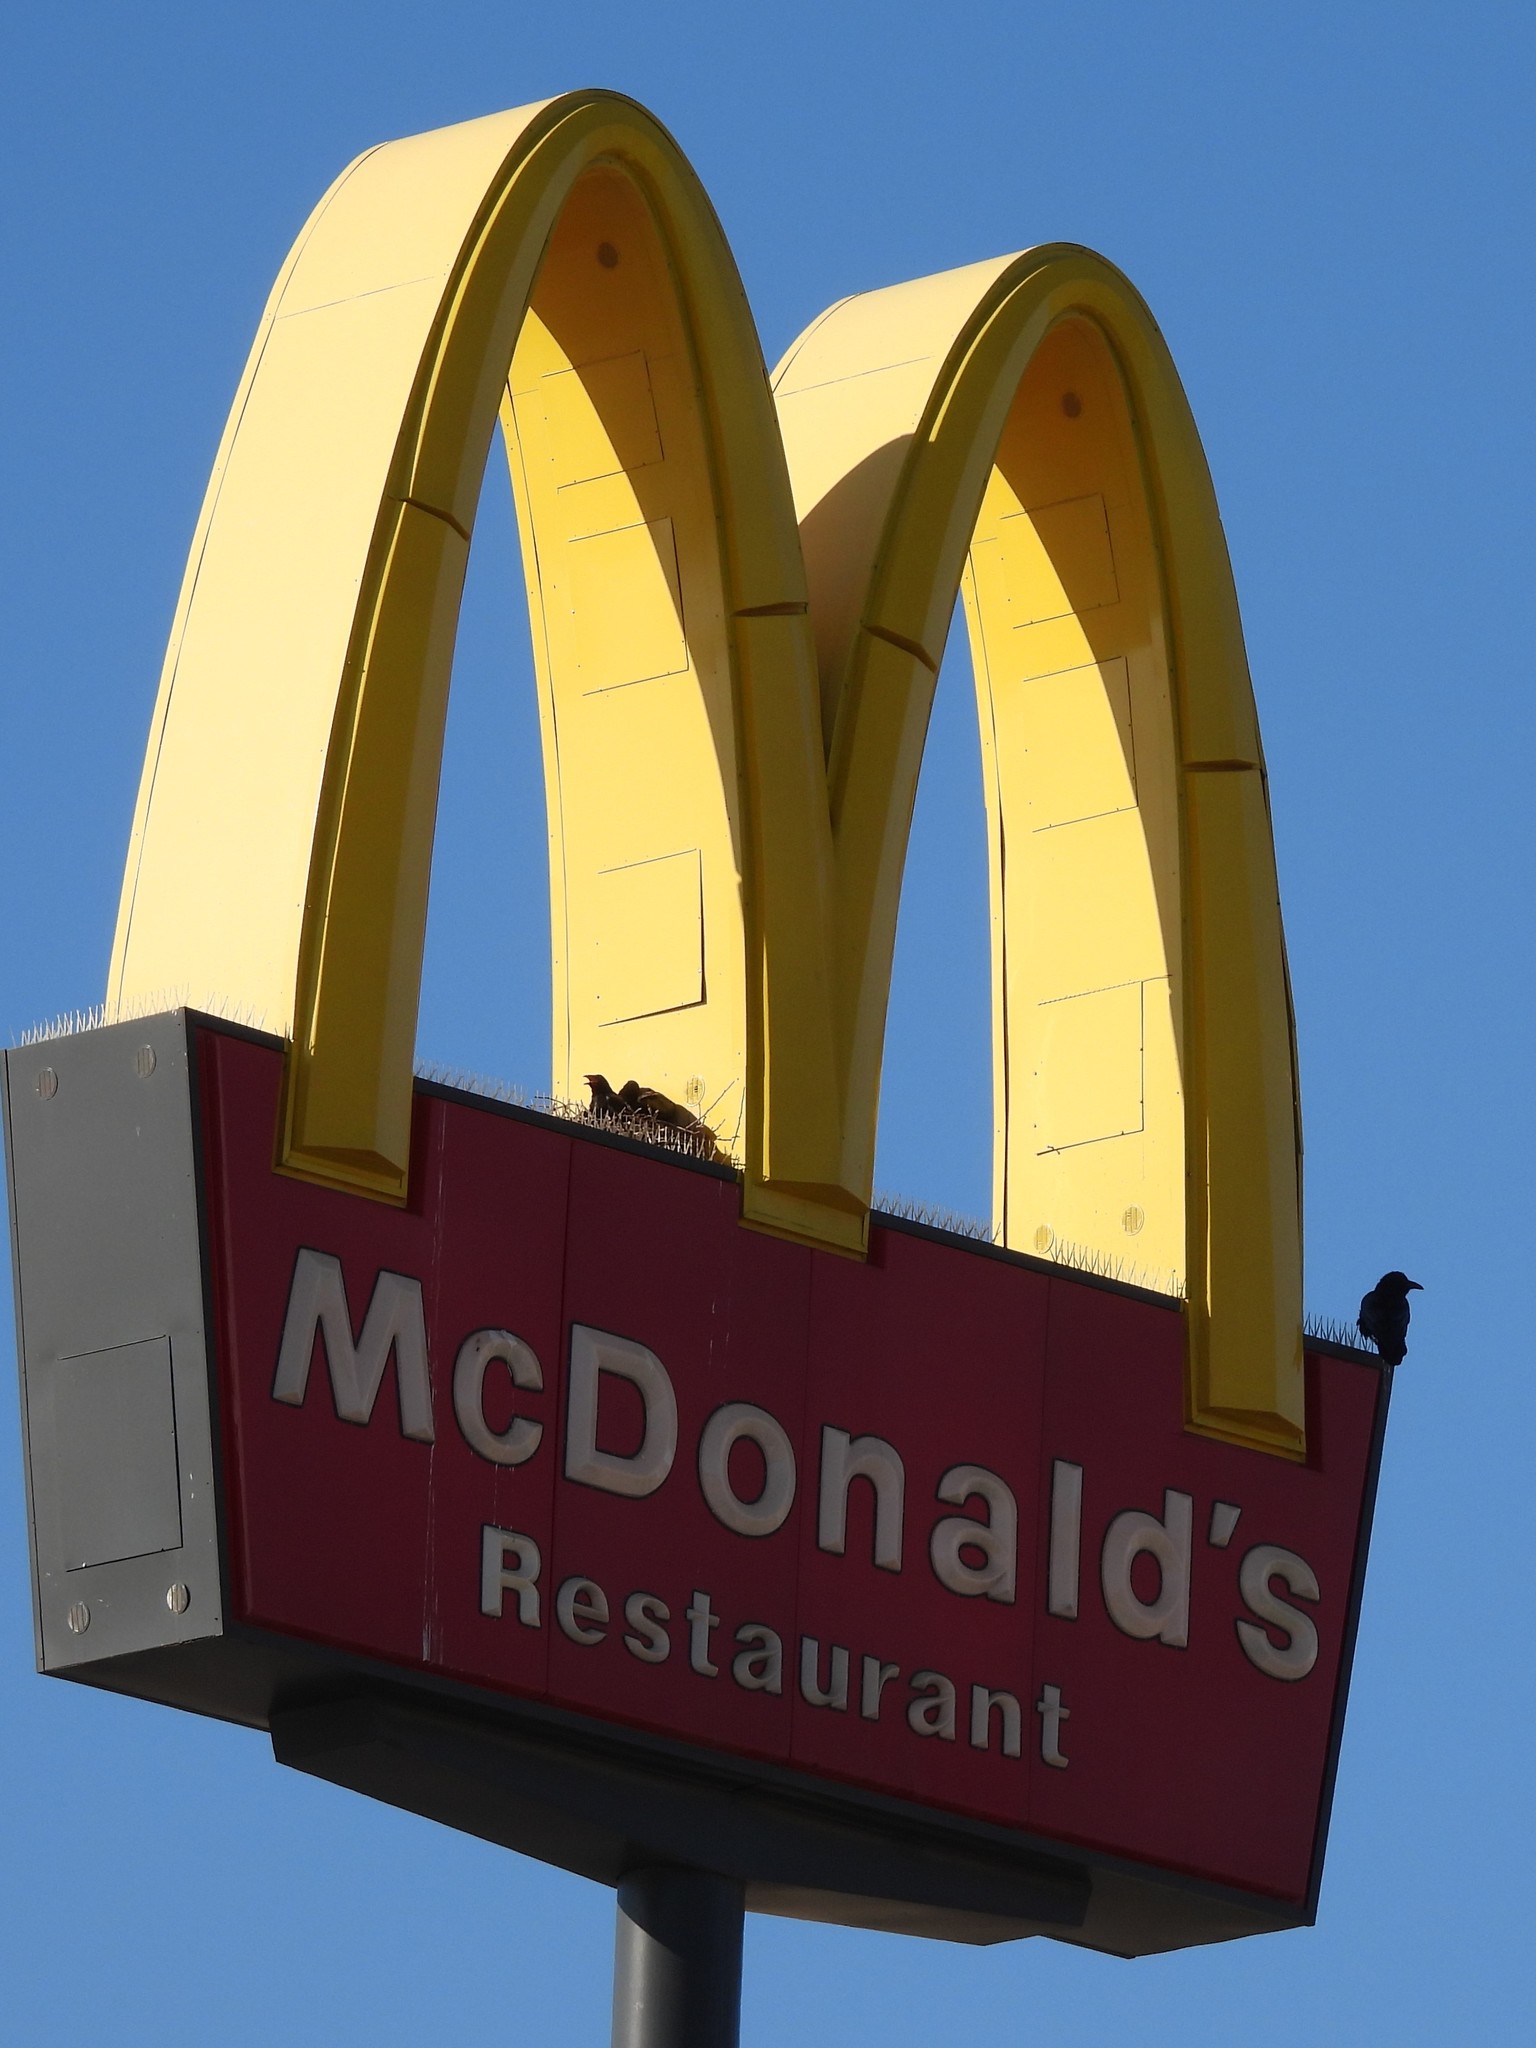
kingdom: Animalia
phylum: Chordata
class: Aves
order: Passeriformes
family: Corvidae
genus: Corvus
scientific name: Corvus brachyrhynchos
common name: American crow
